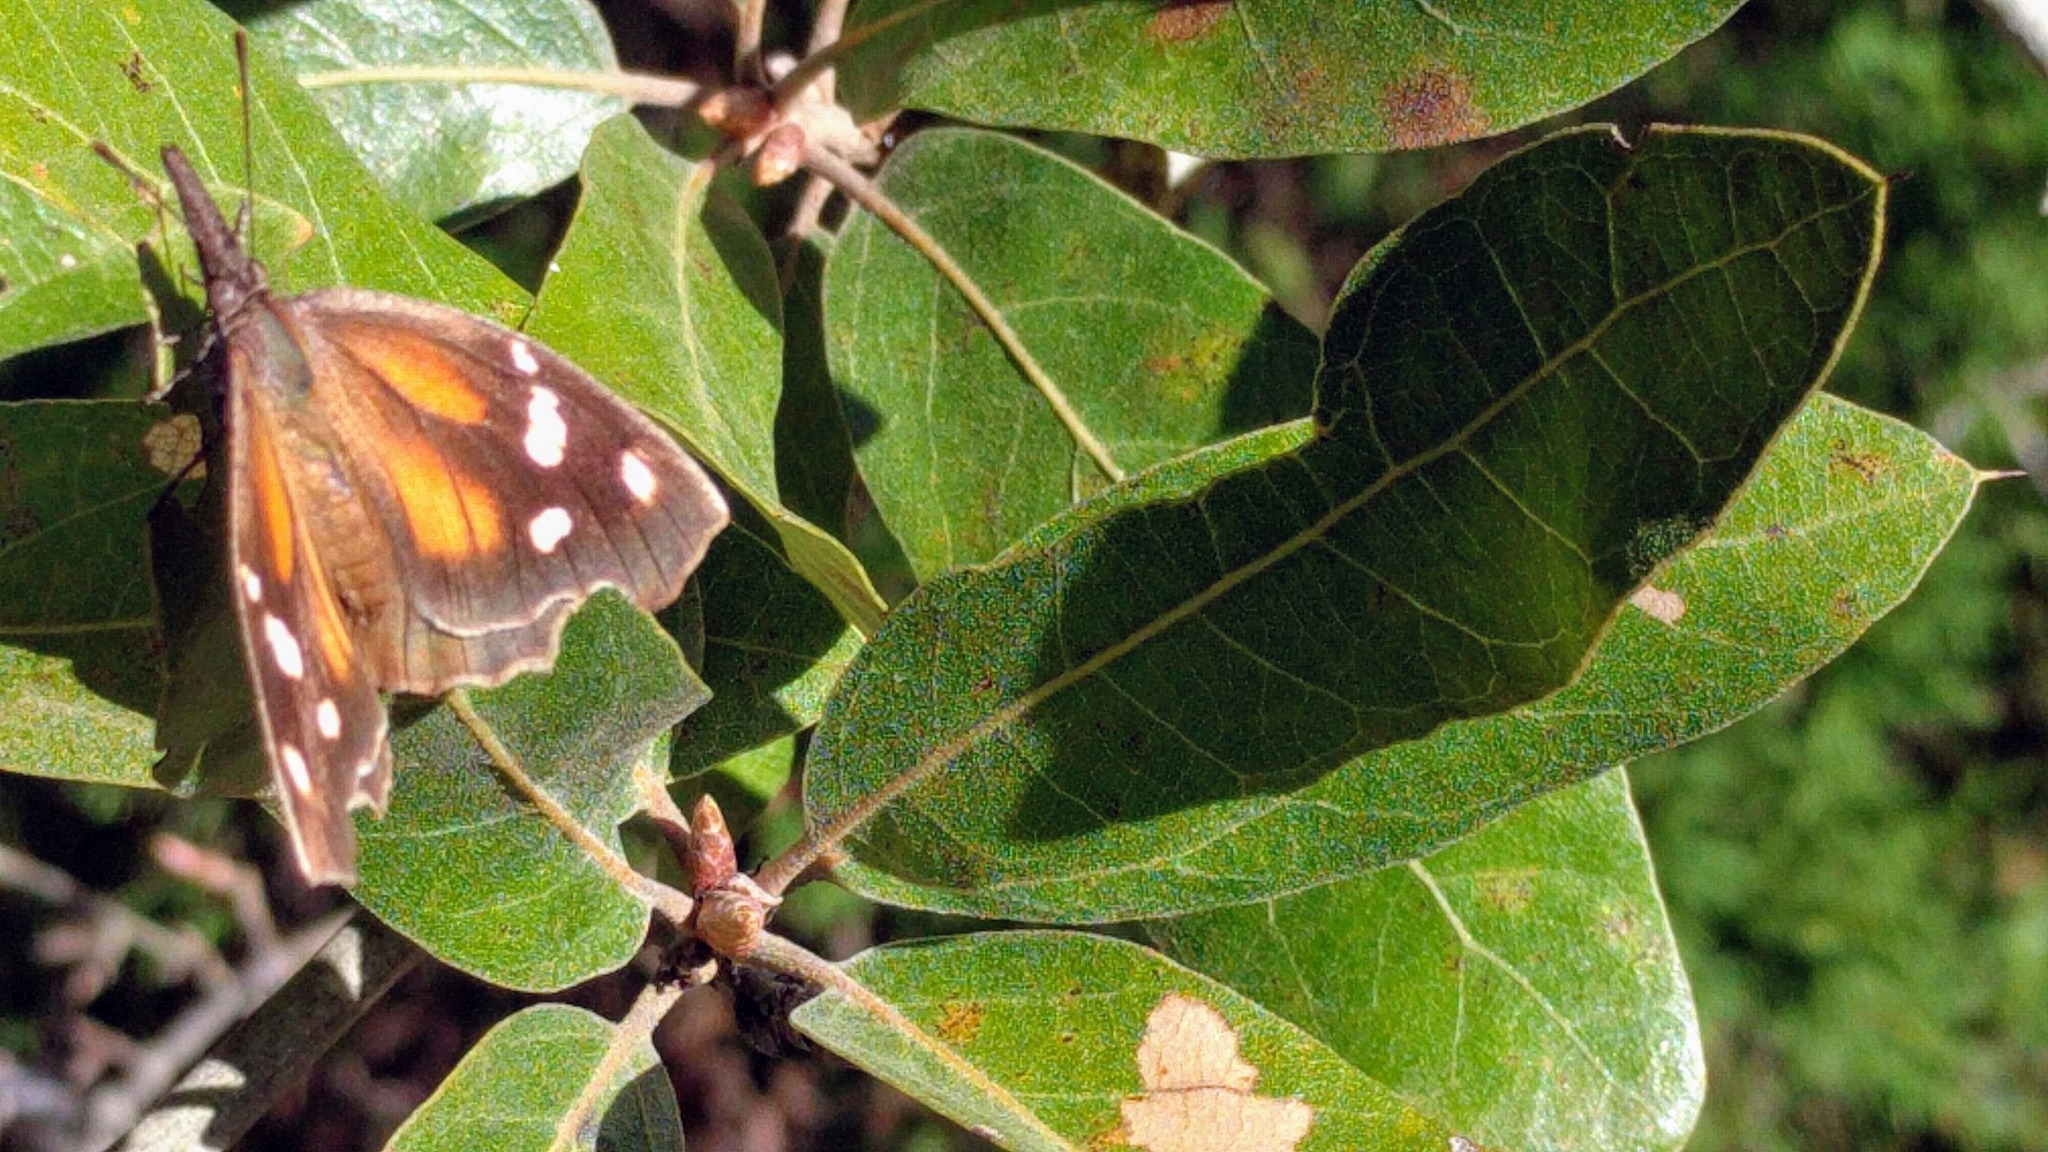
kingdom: Animalia
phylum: Arthropoda
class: Insecta
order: Lepidoptera
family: Nymphalidae
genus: Libytheana
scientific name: Libytheana carinenta
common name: American snout
